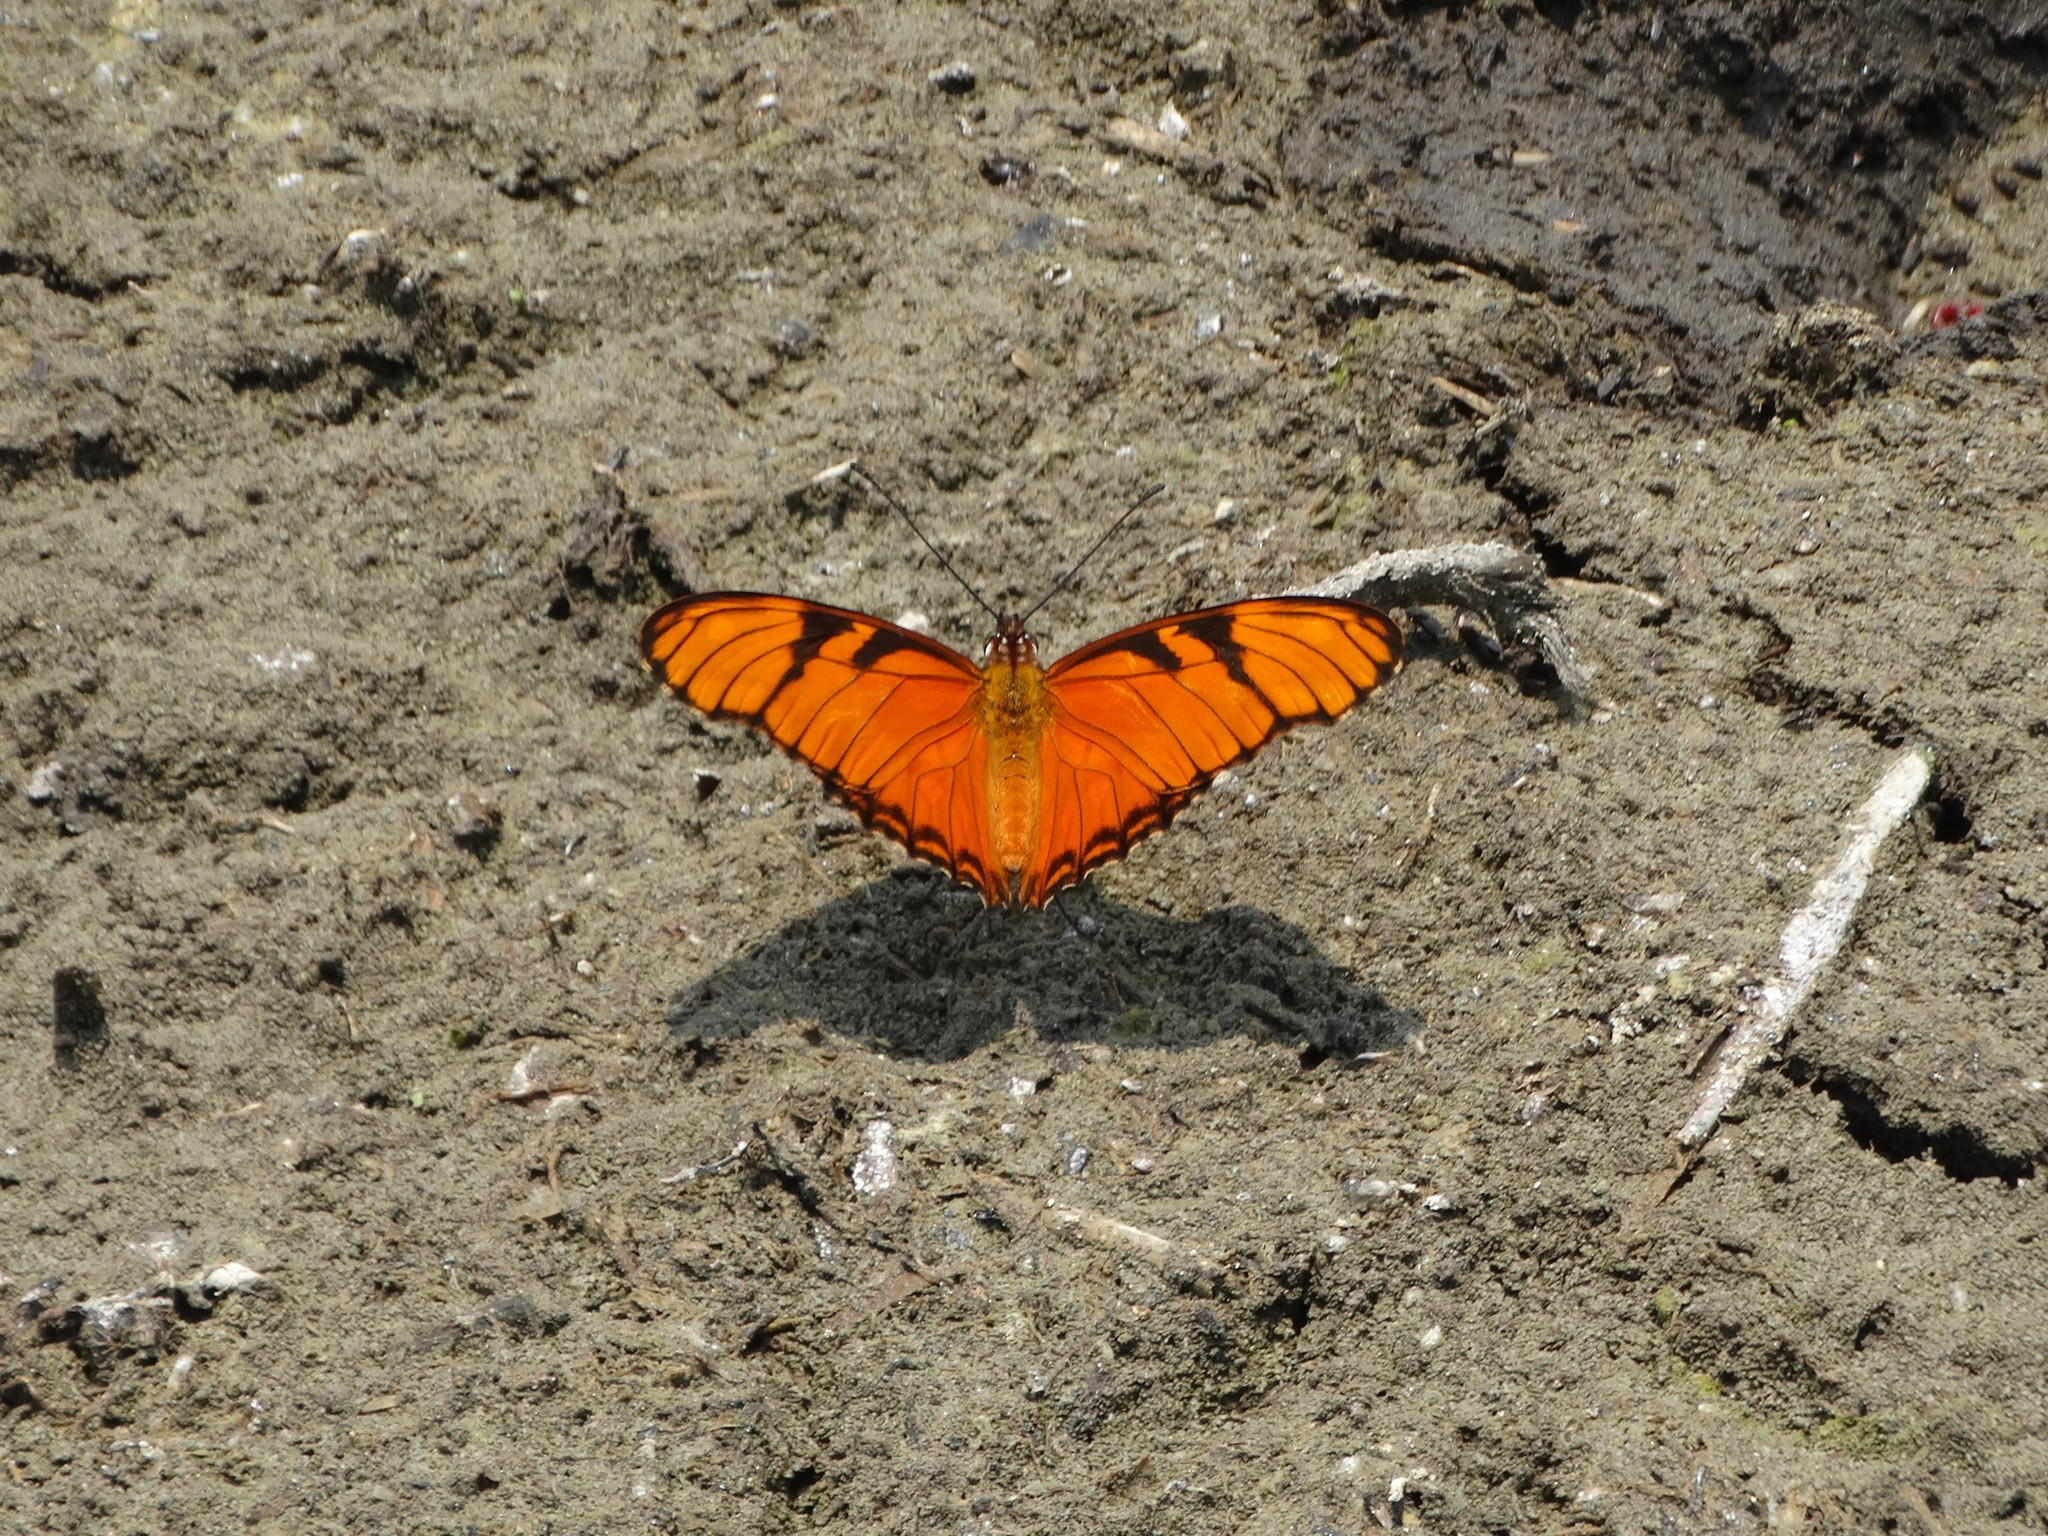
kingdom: Animalia
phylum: Arthropoda
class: Insecta
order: Lepidoptera
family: Nymphalidae
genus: Dione
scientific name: Dione juno
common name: Juno silverspot
